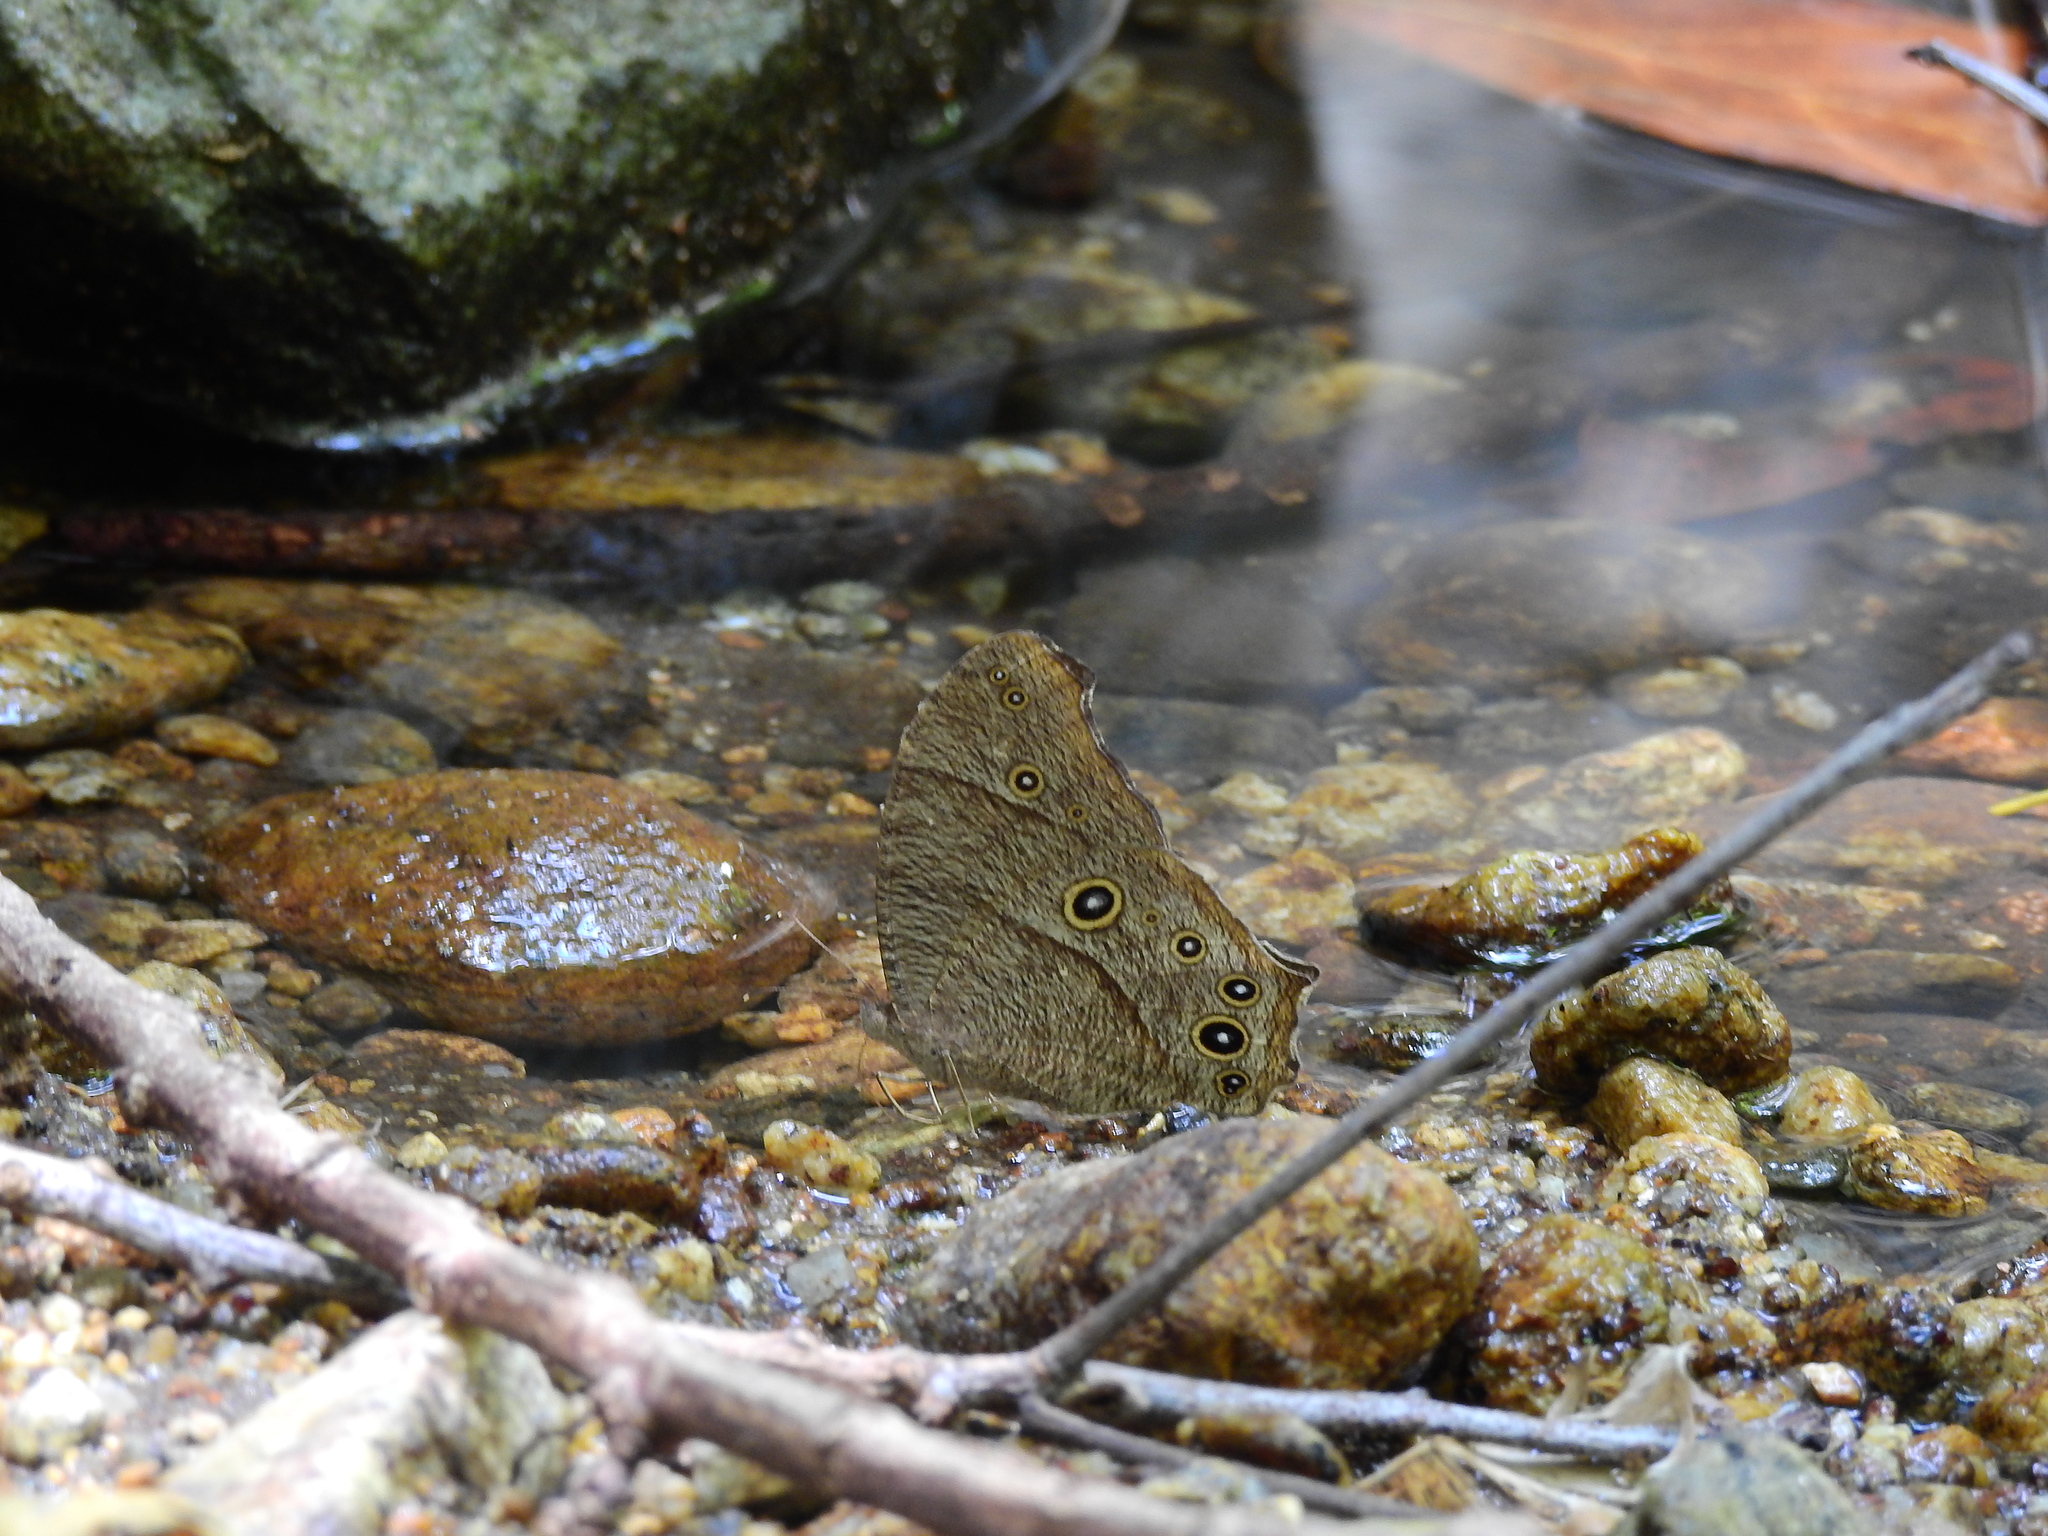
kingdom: Animalia
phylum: Arthropoda
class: Insecta
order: Lepidoptera
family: Nymphalidae
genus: Melanitis
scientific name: Melanitis leda
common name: Twilight brown
